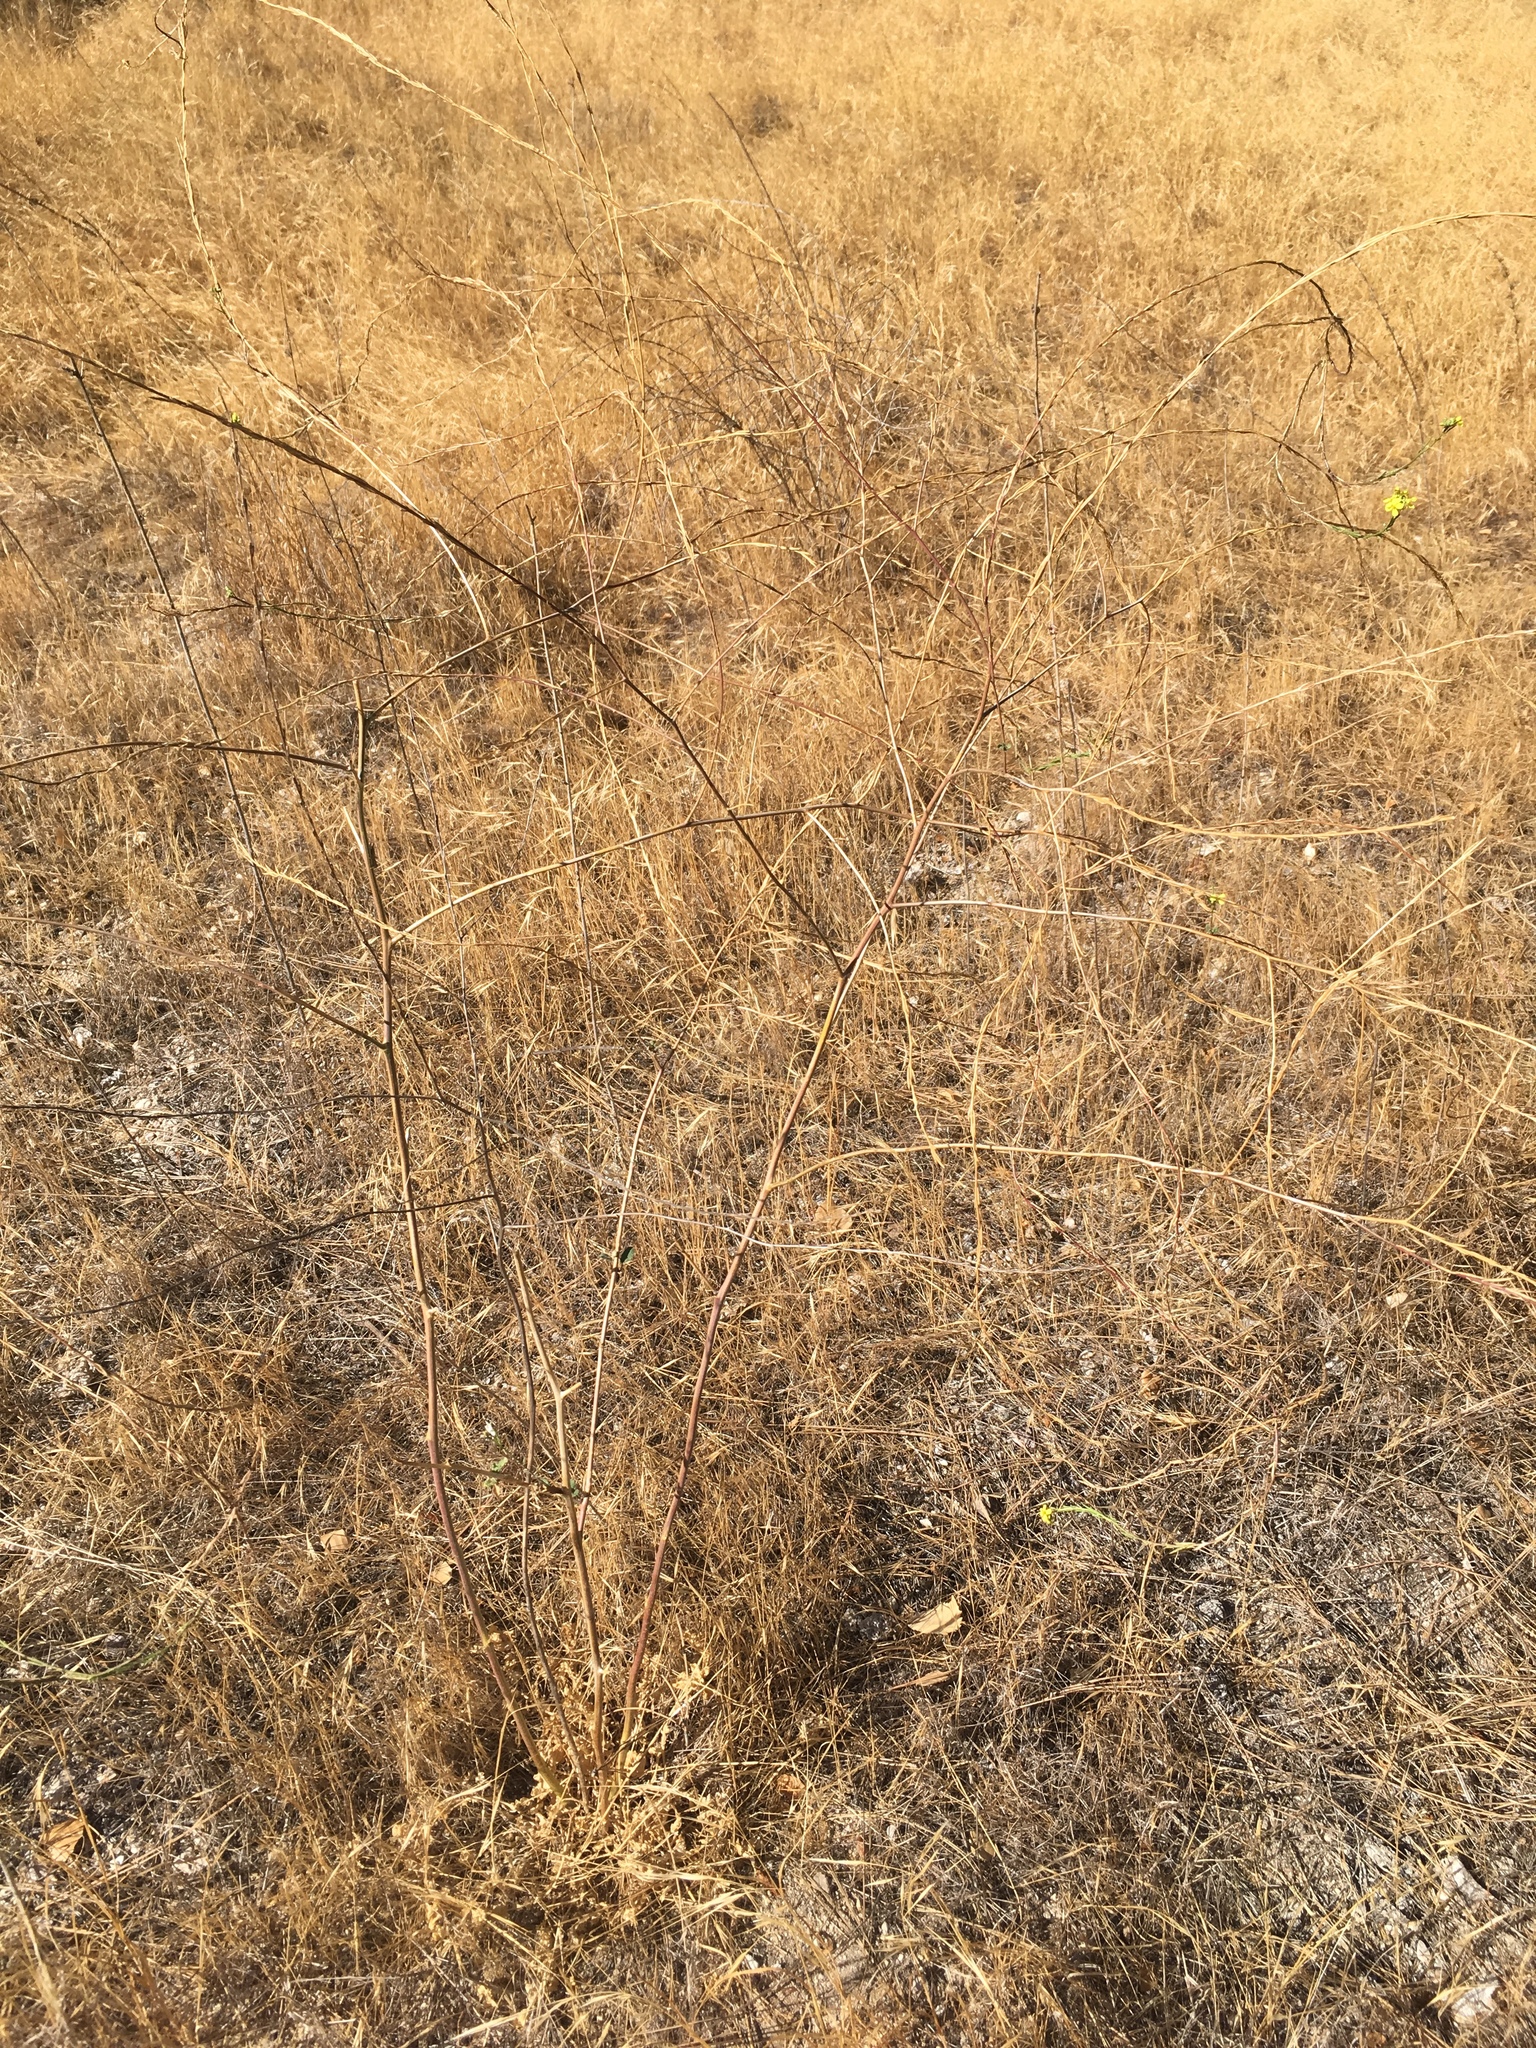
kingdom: Plantae
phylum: Tracheophyta
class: Magnoliopsida
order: Brassicales
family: Brassicaceae
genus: Hirschfeldia
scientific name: Hirschfeldia incana
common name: Hoary mustard
